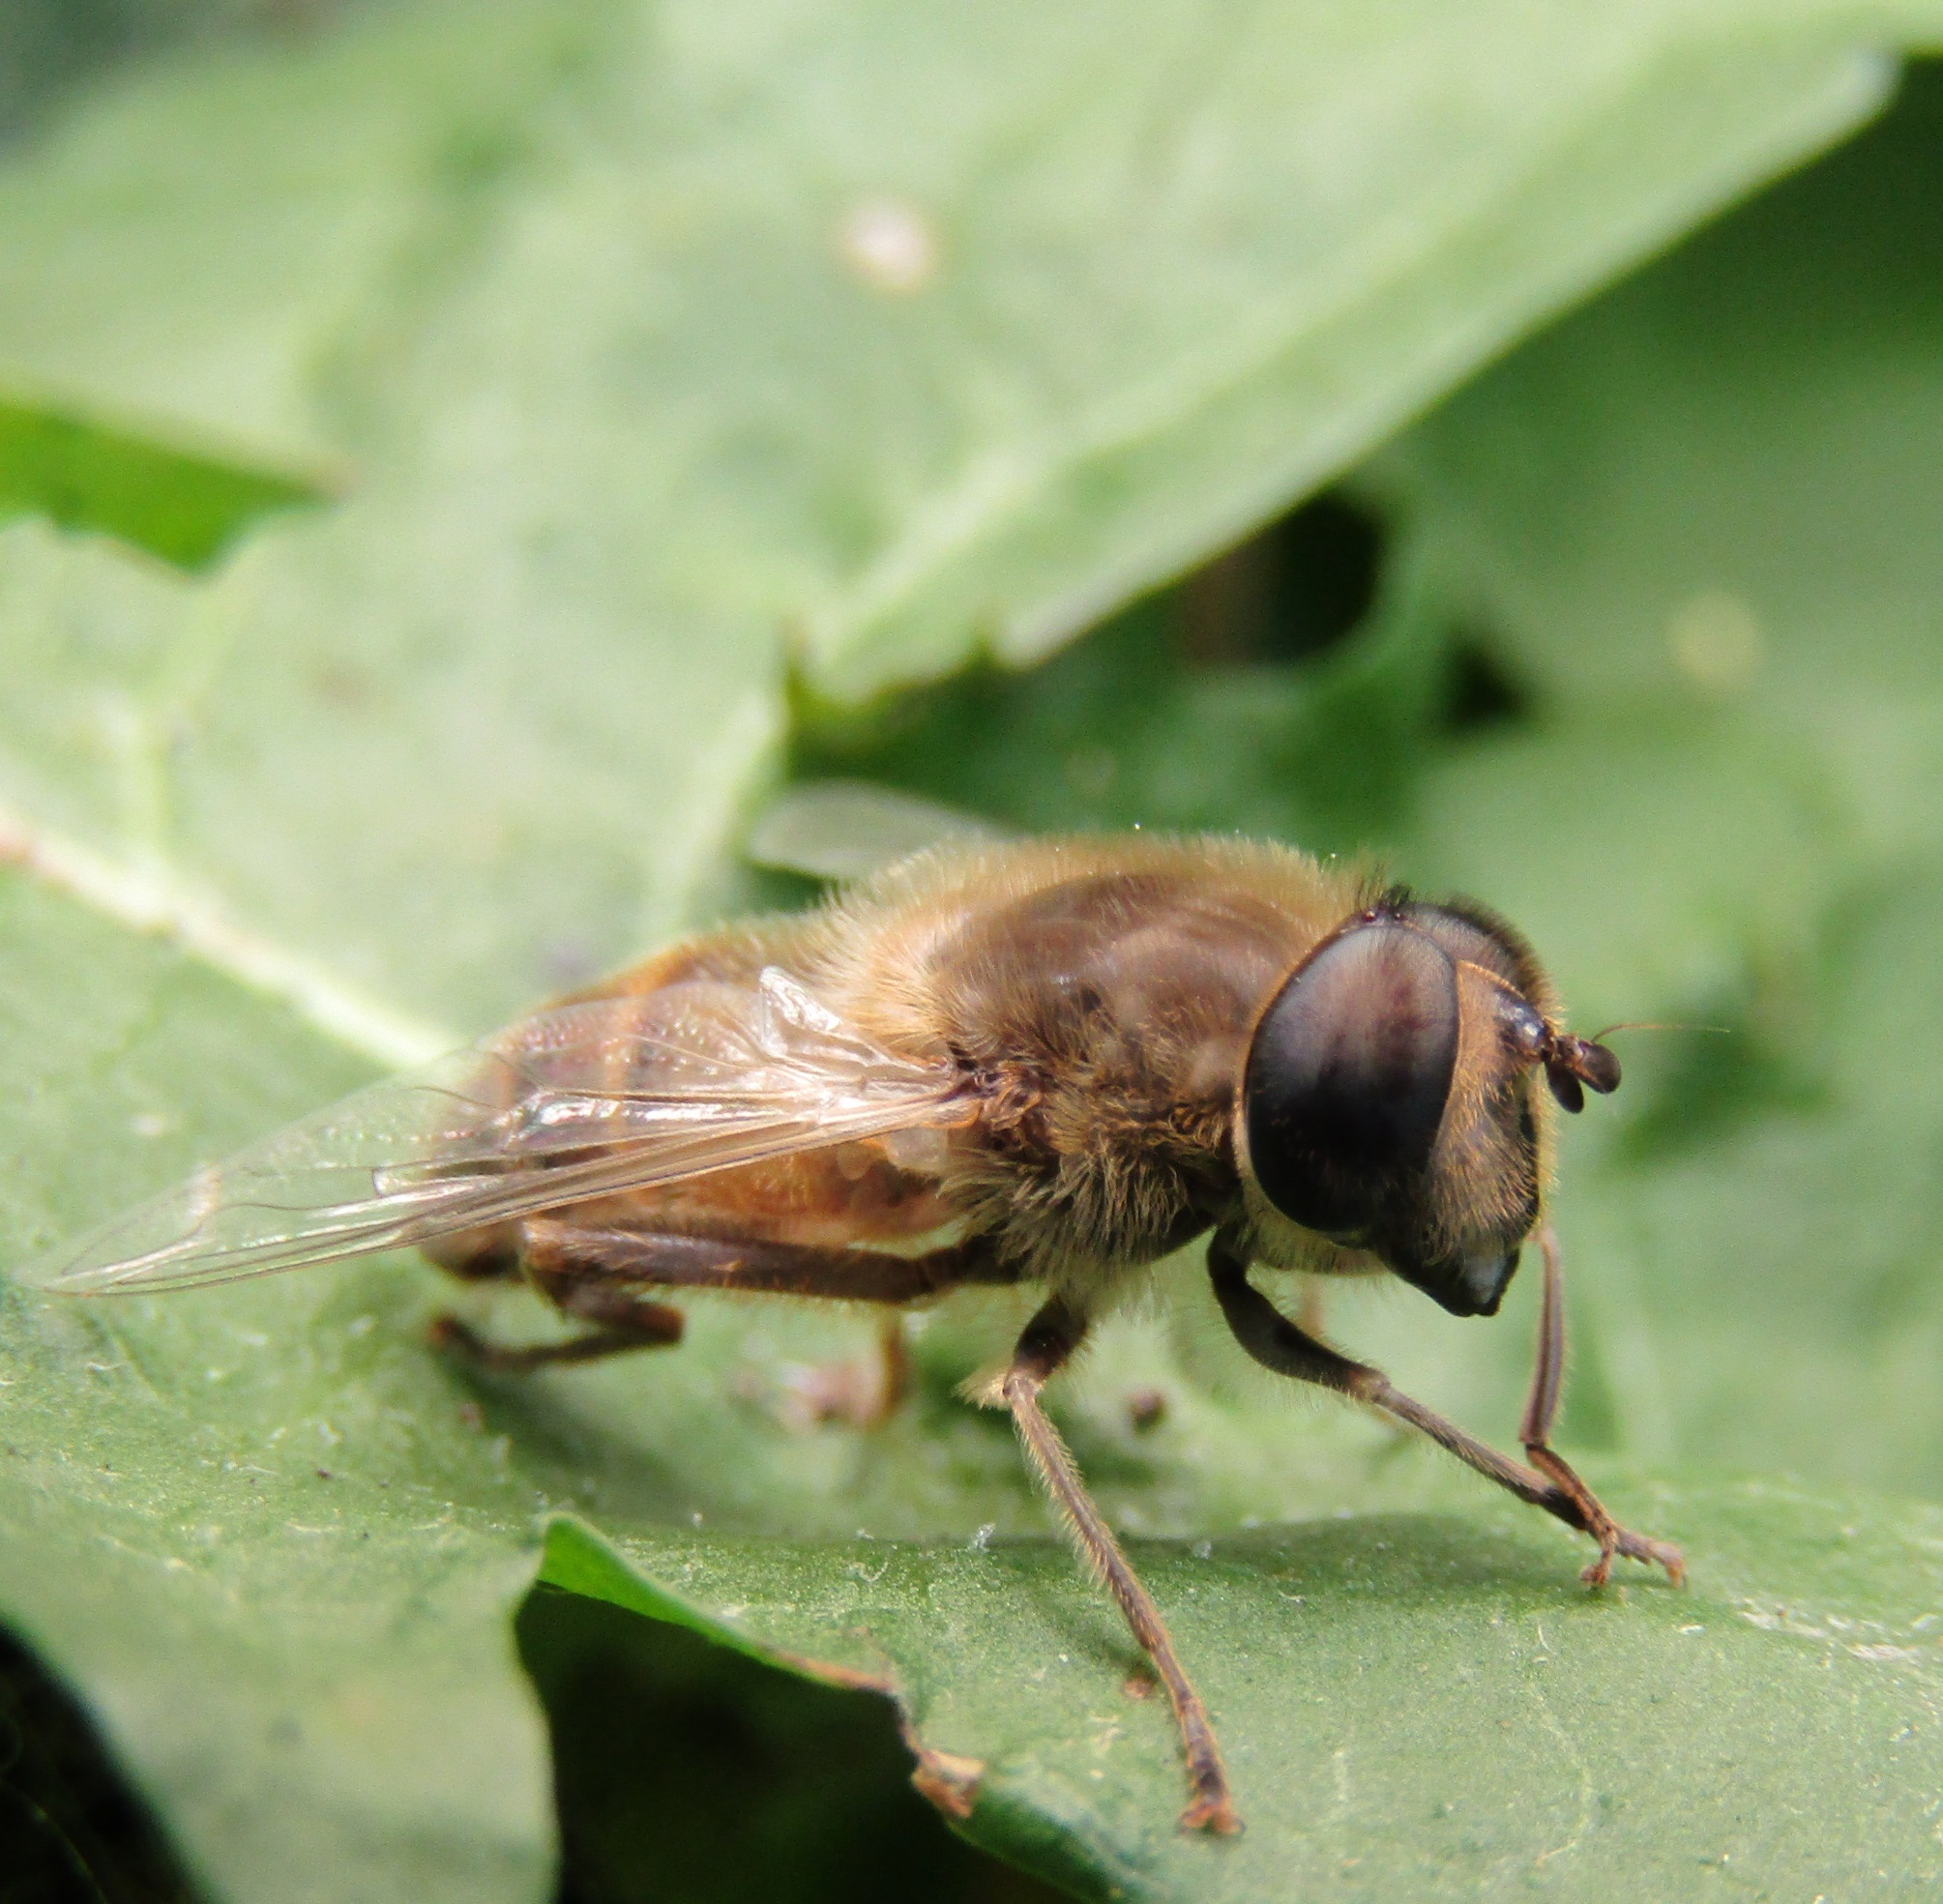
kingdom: Animalia
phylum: Arthropoda
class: Insecta
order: Diptera
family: Syrphidae
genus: Eristalis
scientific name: Eristalis tenax
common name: Drone fly
